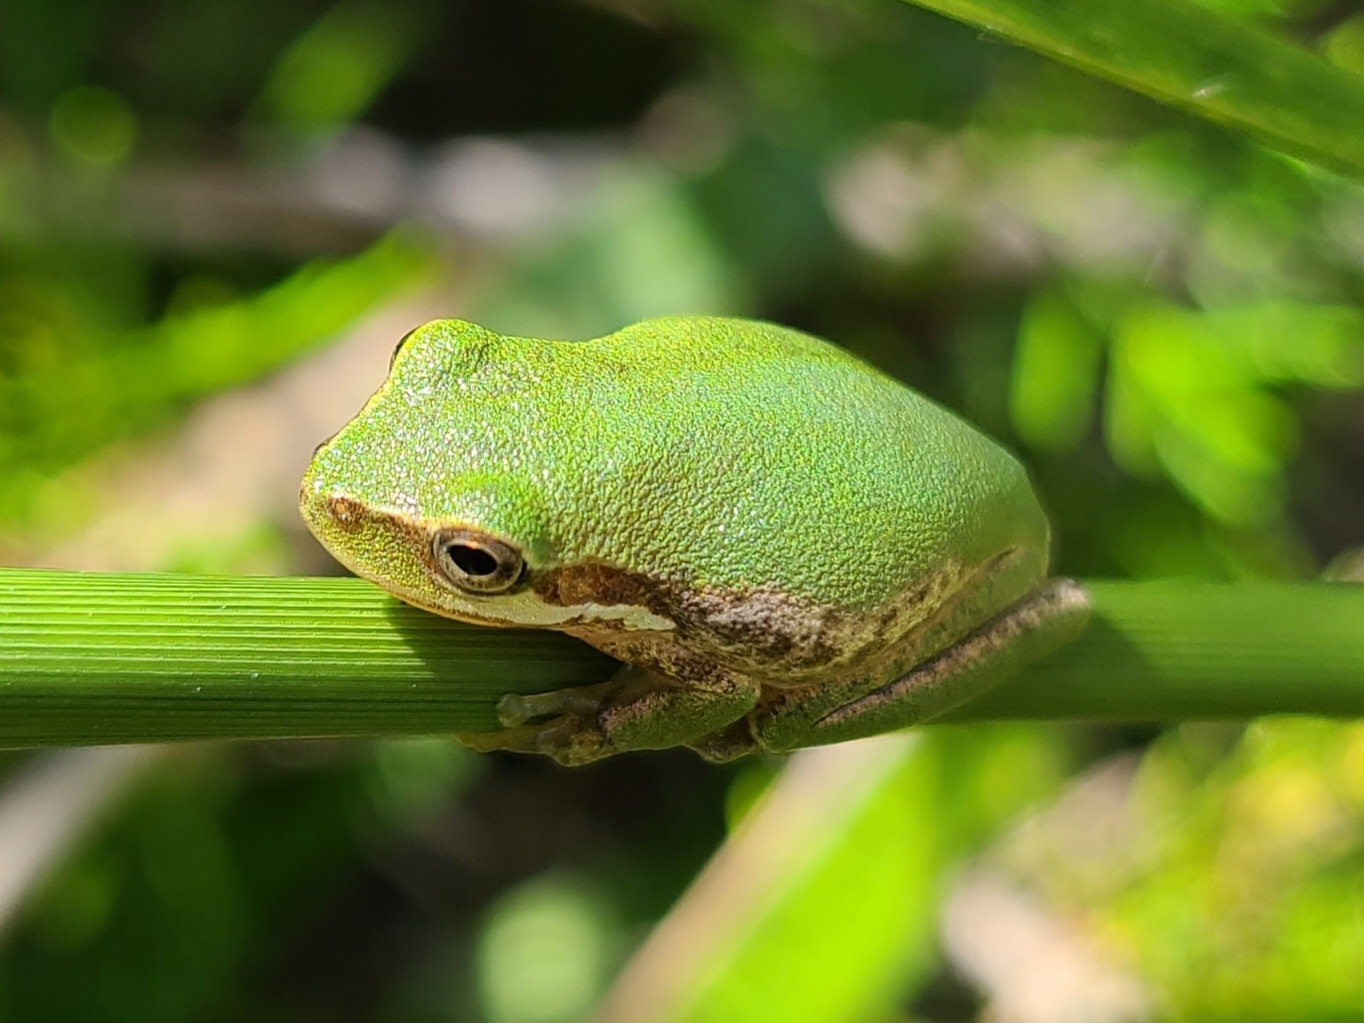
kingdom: Animalia
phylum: Chordata
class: Amphibia
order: Anura
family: Hylidae
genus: Dryophytes
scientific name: Dryophytes squirellus
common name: Squirrel treefrog
